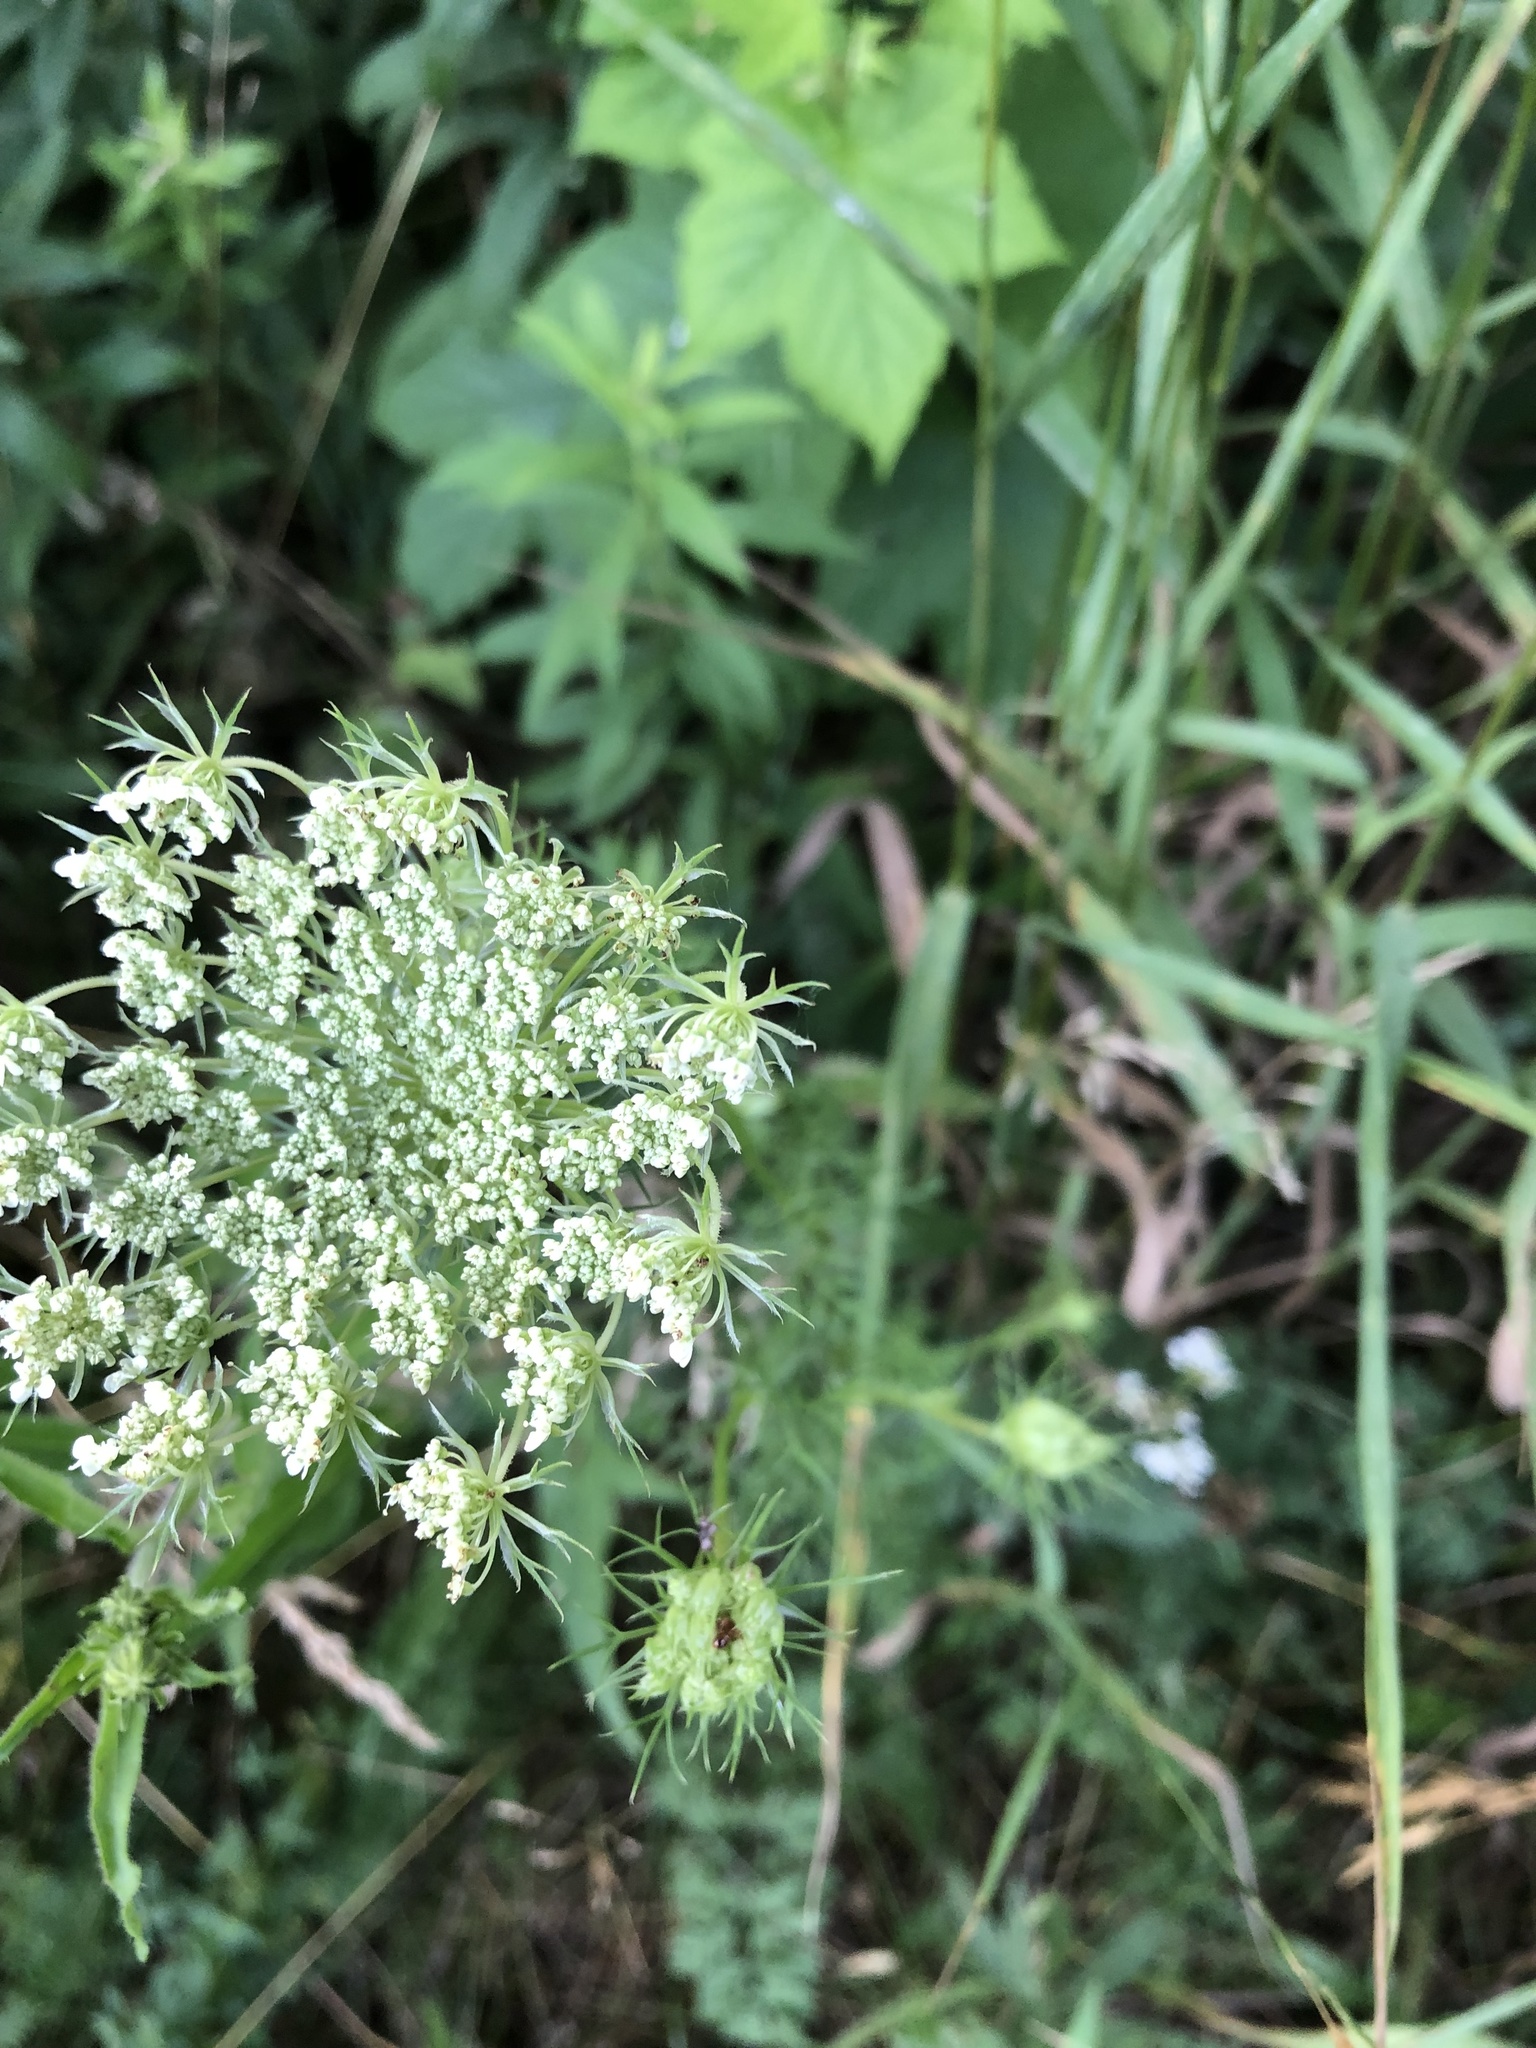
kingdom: Plantae
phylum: Tracheophyta
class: Magnoliopsida
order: Apiales
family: Apiaceae
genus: Daucus
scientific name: Daucus carota
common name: Wild carrot
